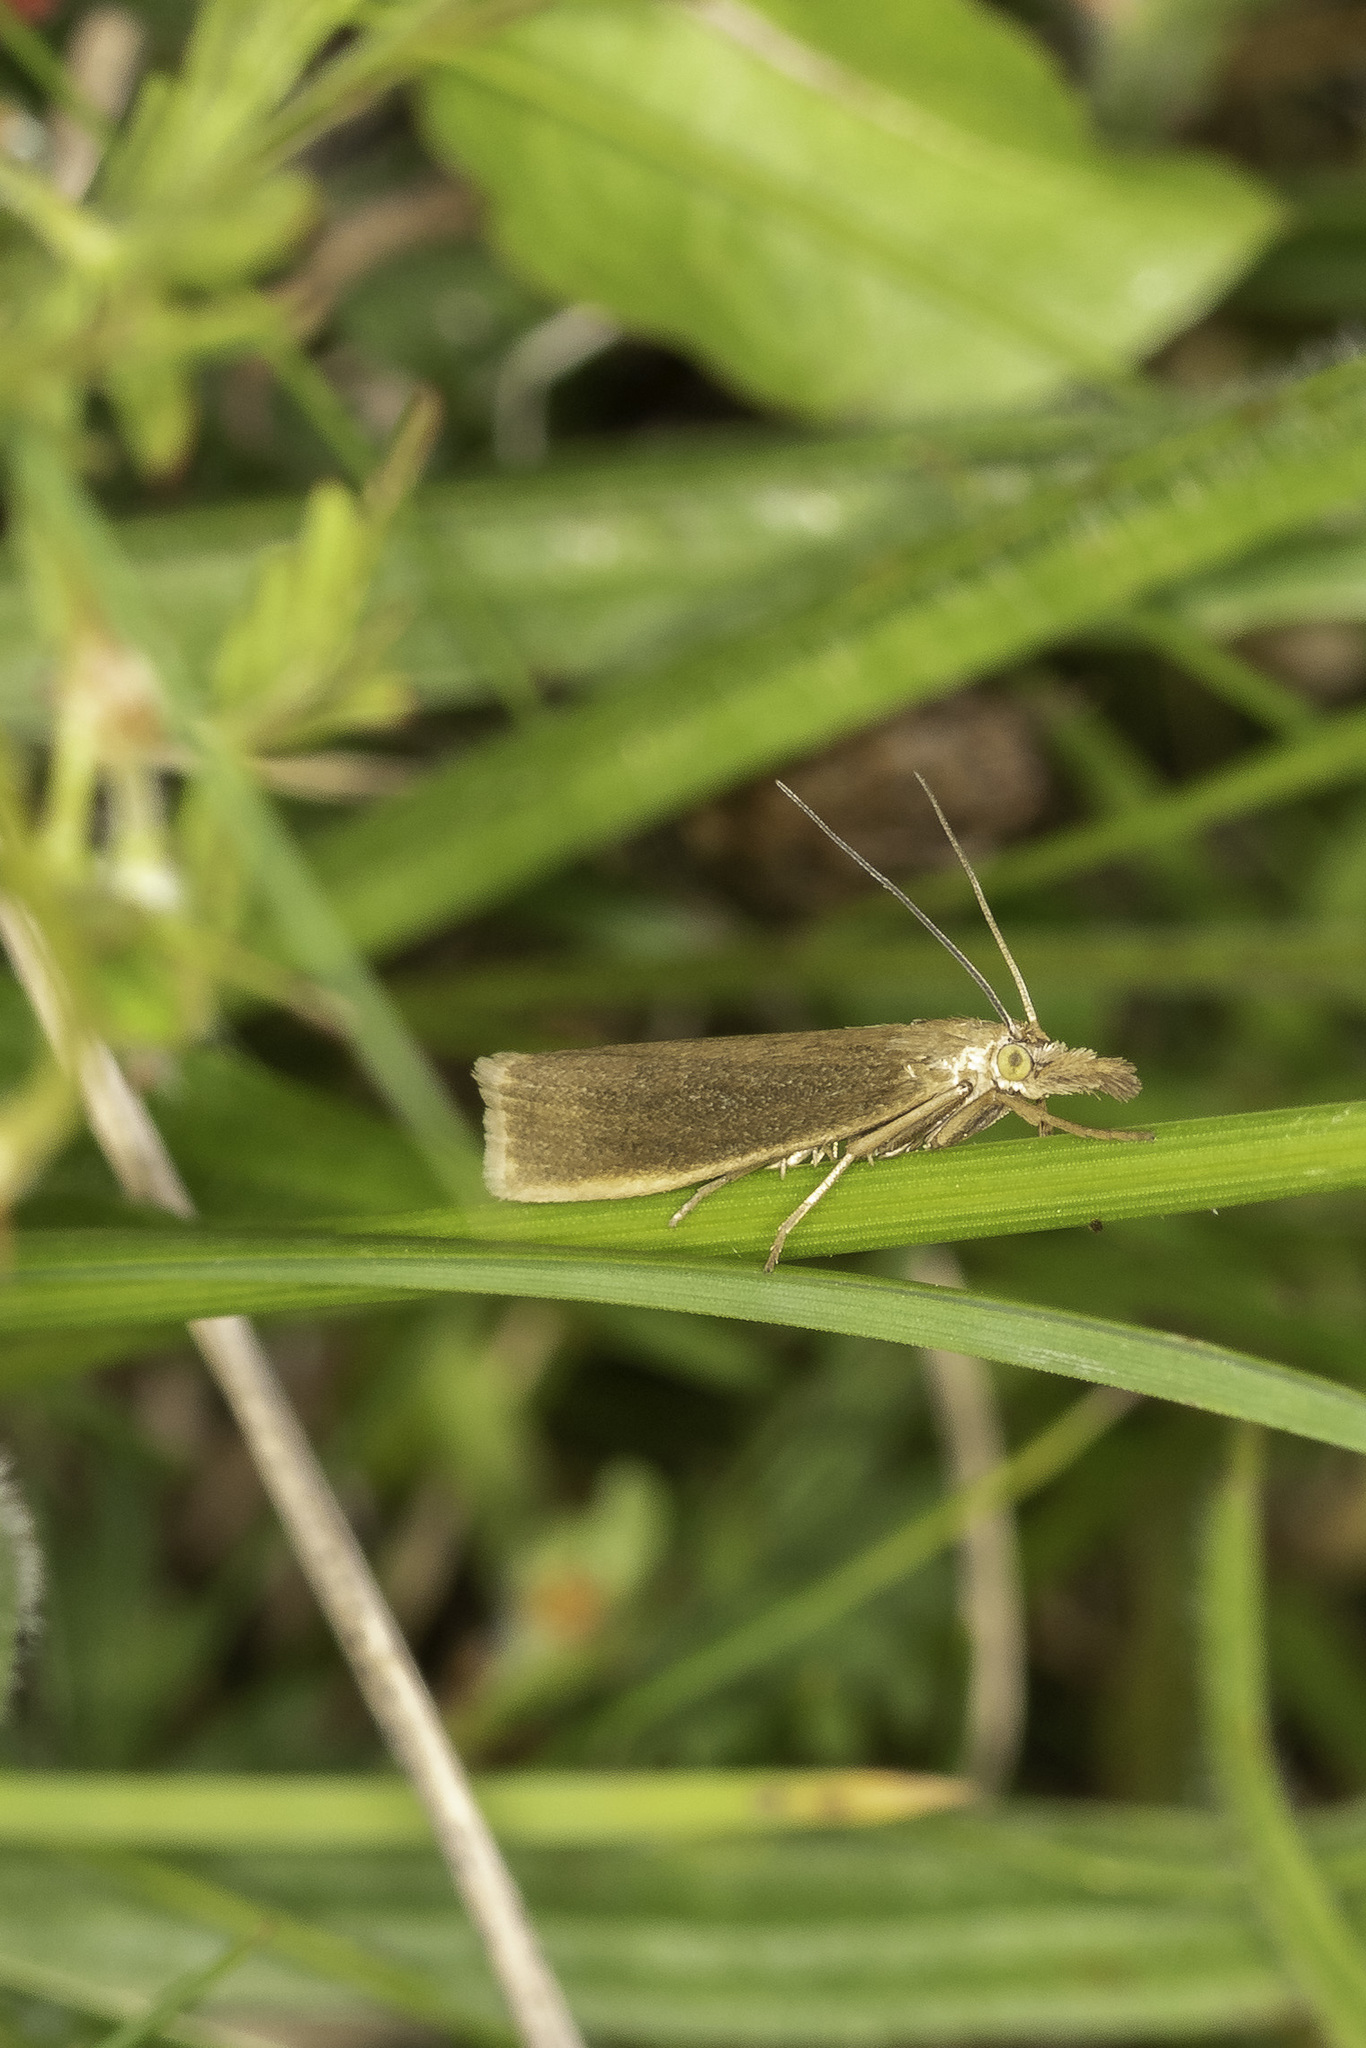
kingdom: Animalia
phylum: Arthropoda
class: Insecta
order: Lepidoptera
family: Crambidae
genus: Crambus
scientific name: Crambus perlellus
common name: Yellow satin veneer
